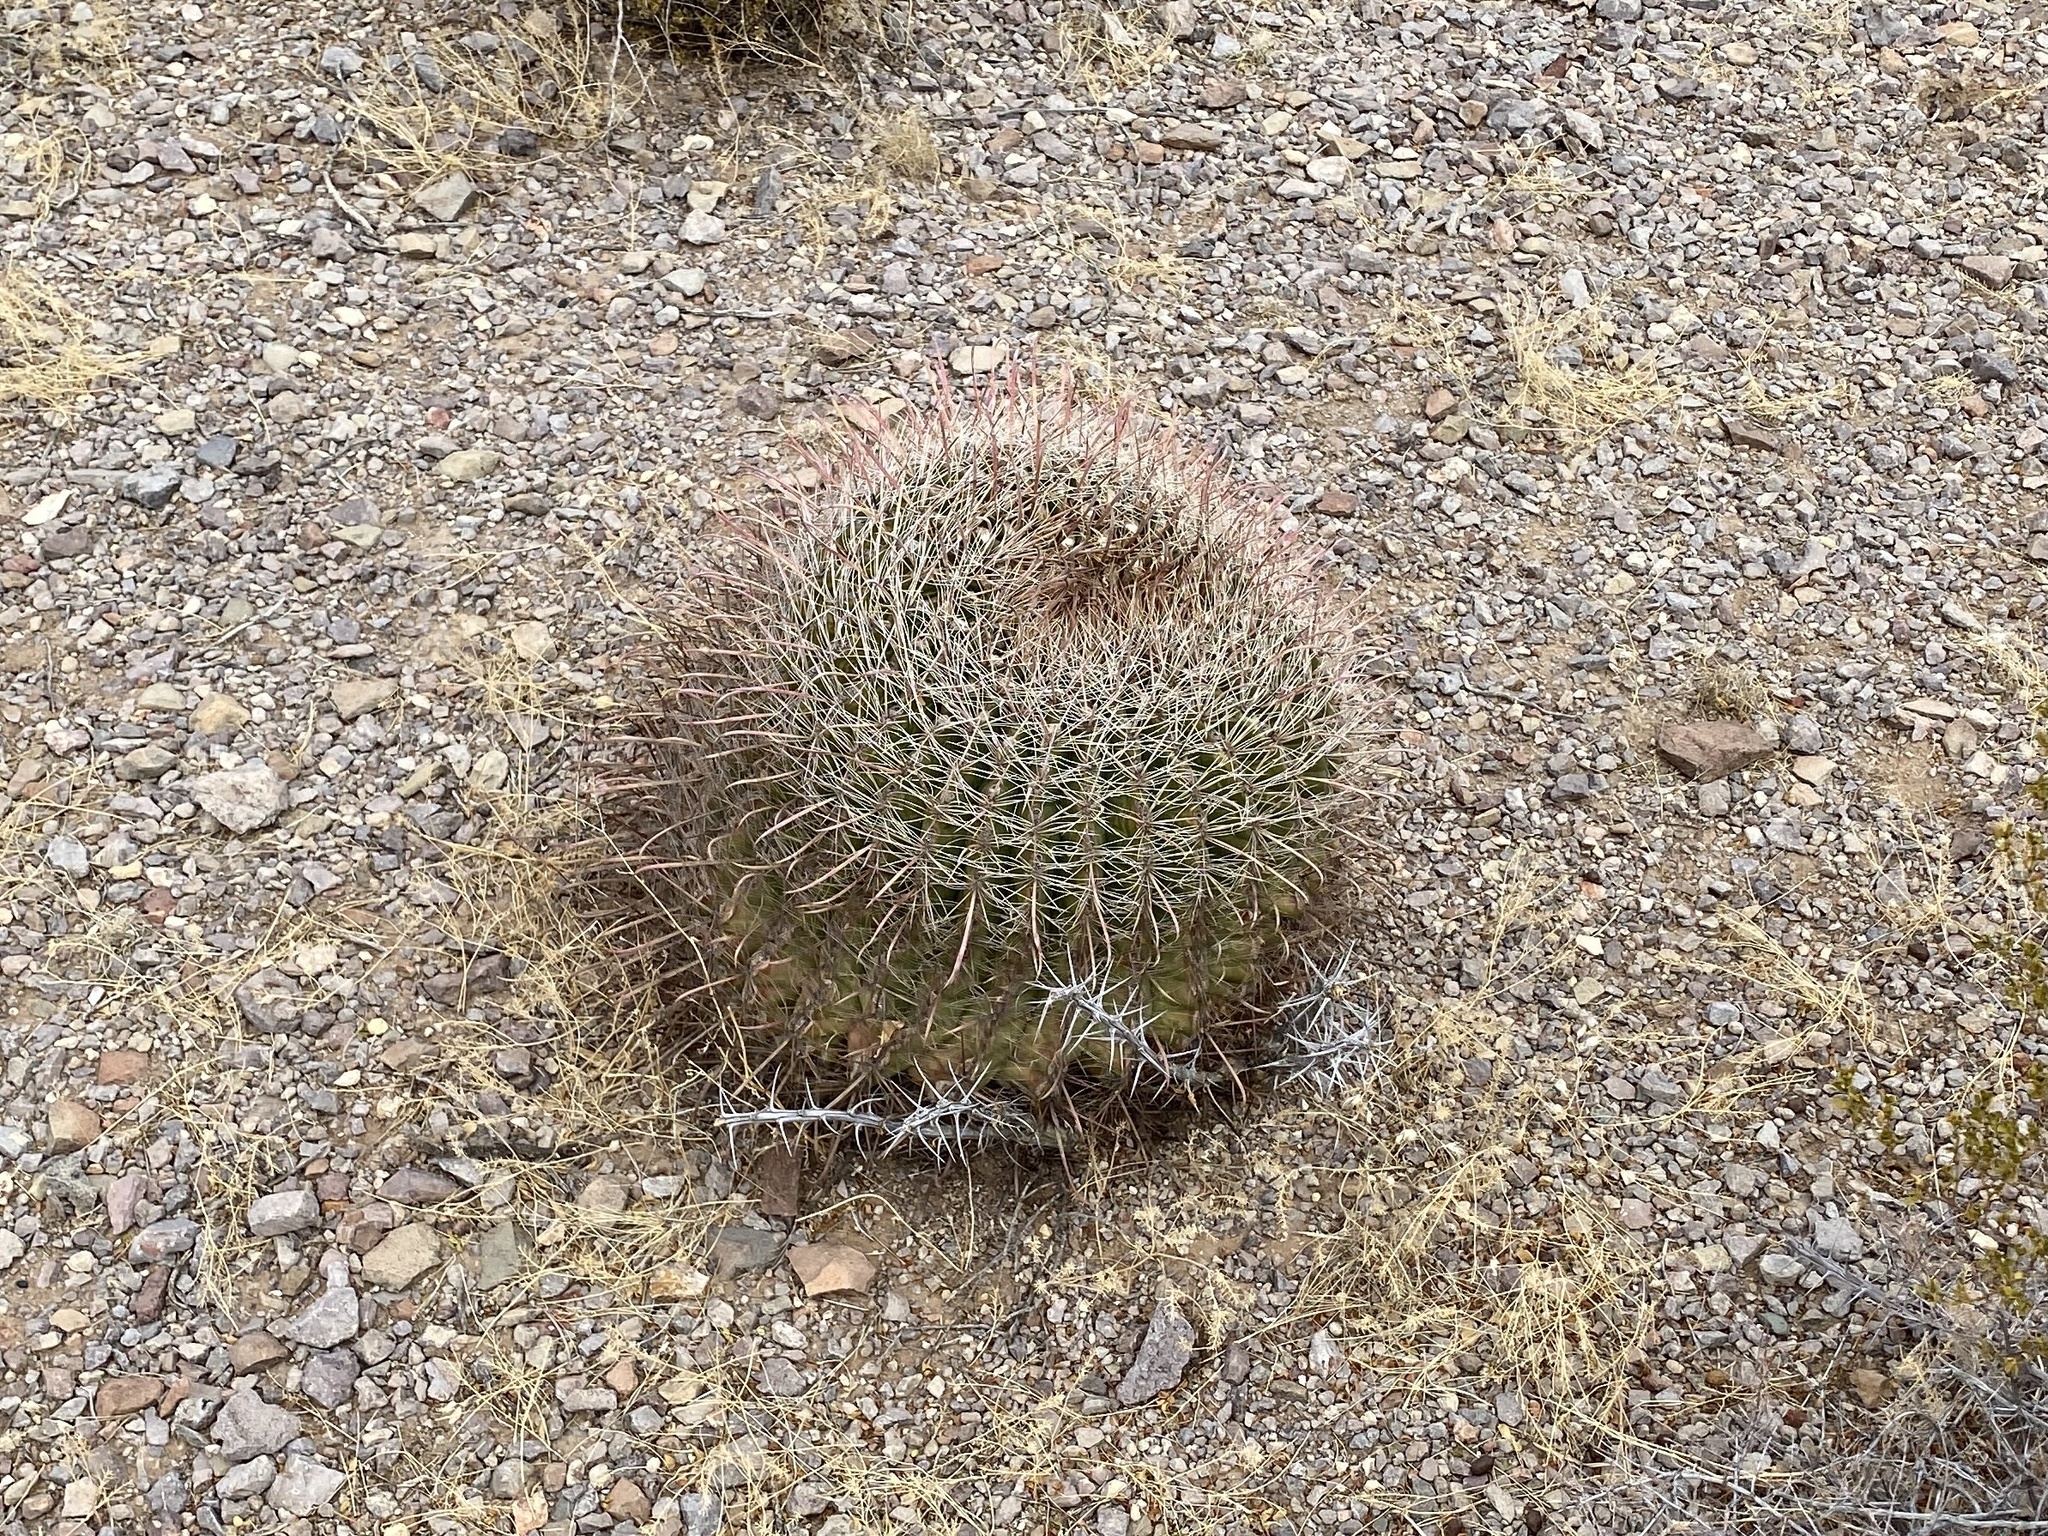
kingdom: Plantae
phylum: Tracheophyta
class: Magnoliopsida
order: Caryophyllales
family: Cactaceae
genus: Ferocactus
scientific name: Ferocactus wislizeni
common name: Candy barrel cactus
